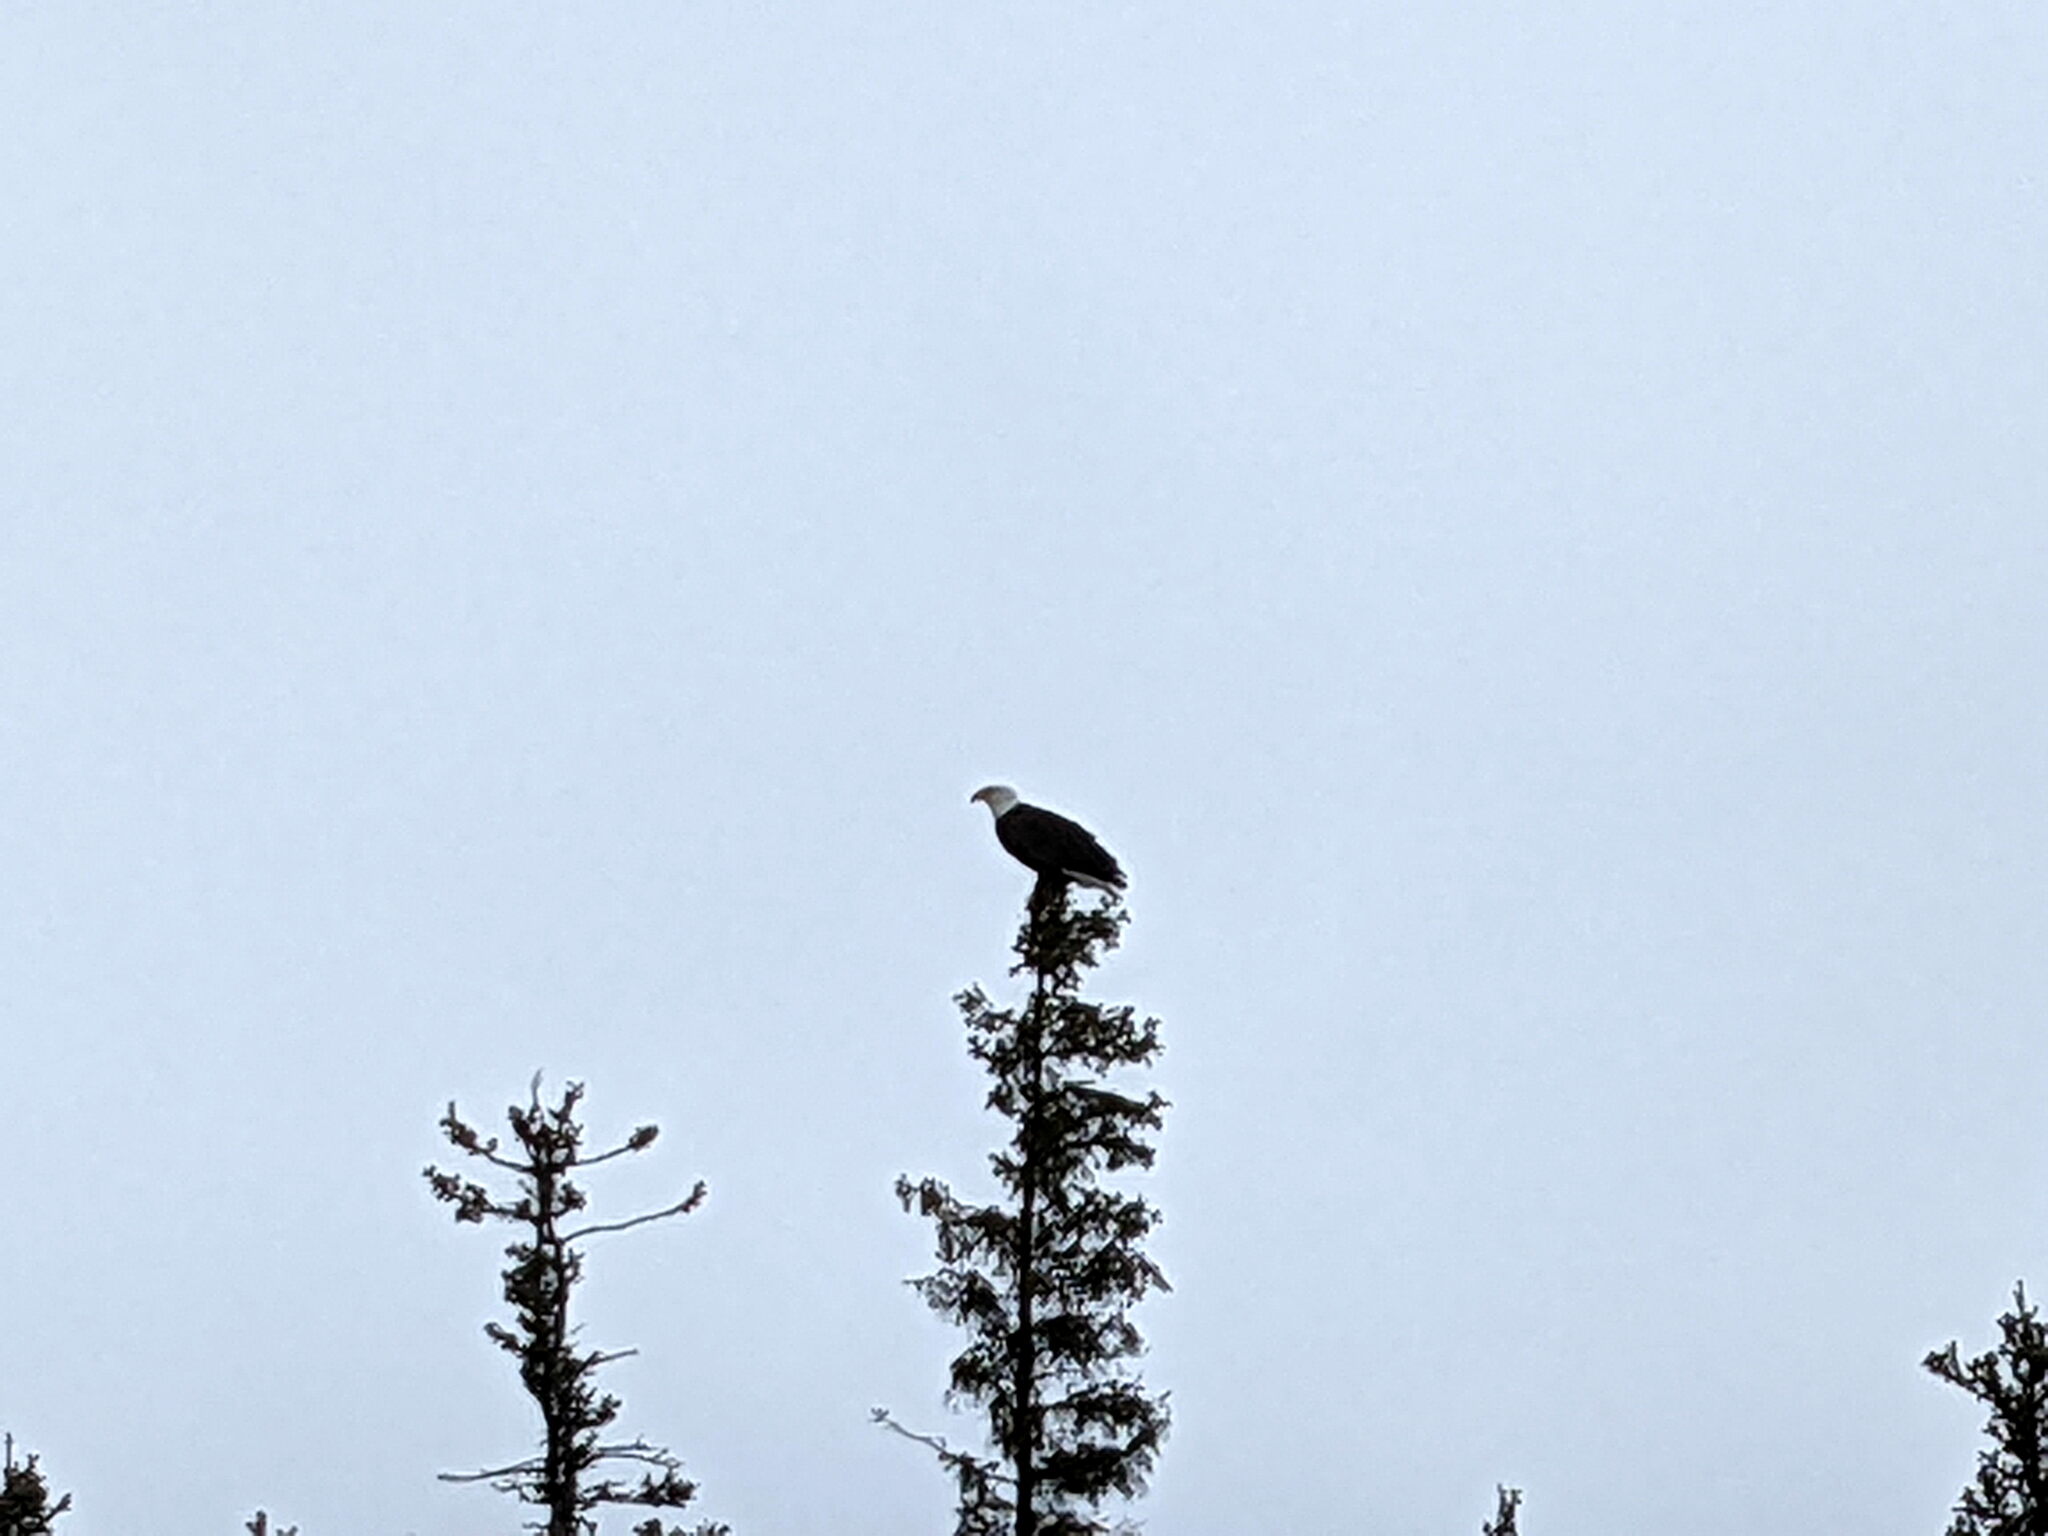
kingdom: Animalia
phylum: Chordata
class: Aves
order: Accipitriformes
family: Accipitridae
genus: Haliaeetus
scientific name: Haliaeetus leucocephalus
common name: Bald eagle
